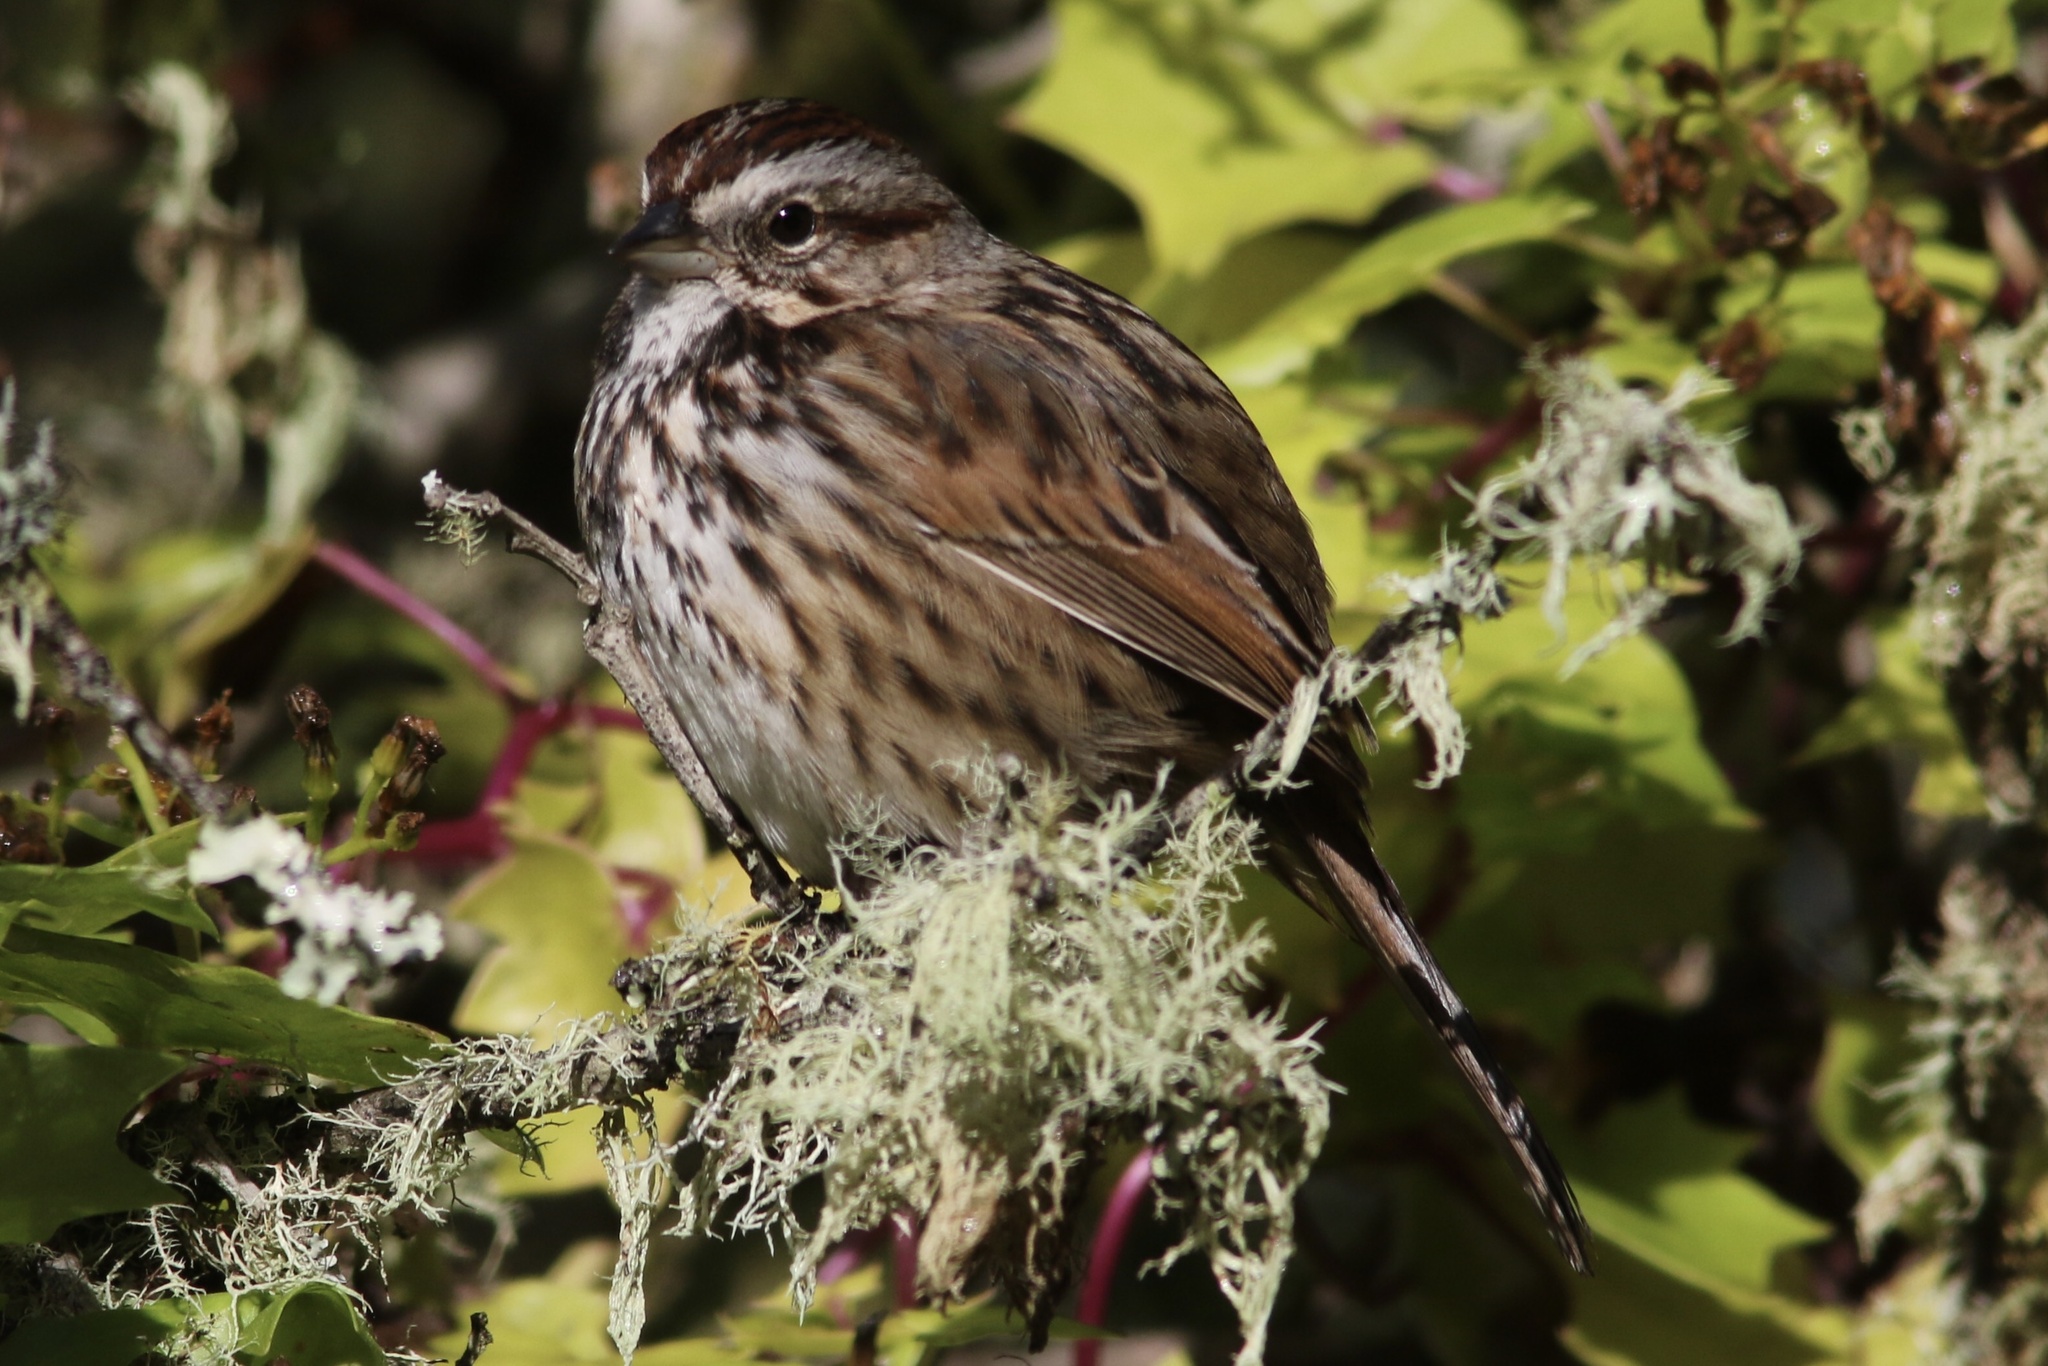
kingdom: Animalia
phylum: Chordata
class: Aves
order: Passeriformes
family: Passerellidae
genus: Melospiza
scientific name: Melospiza melodia
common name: Song sparrow
